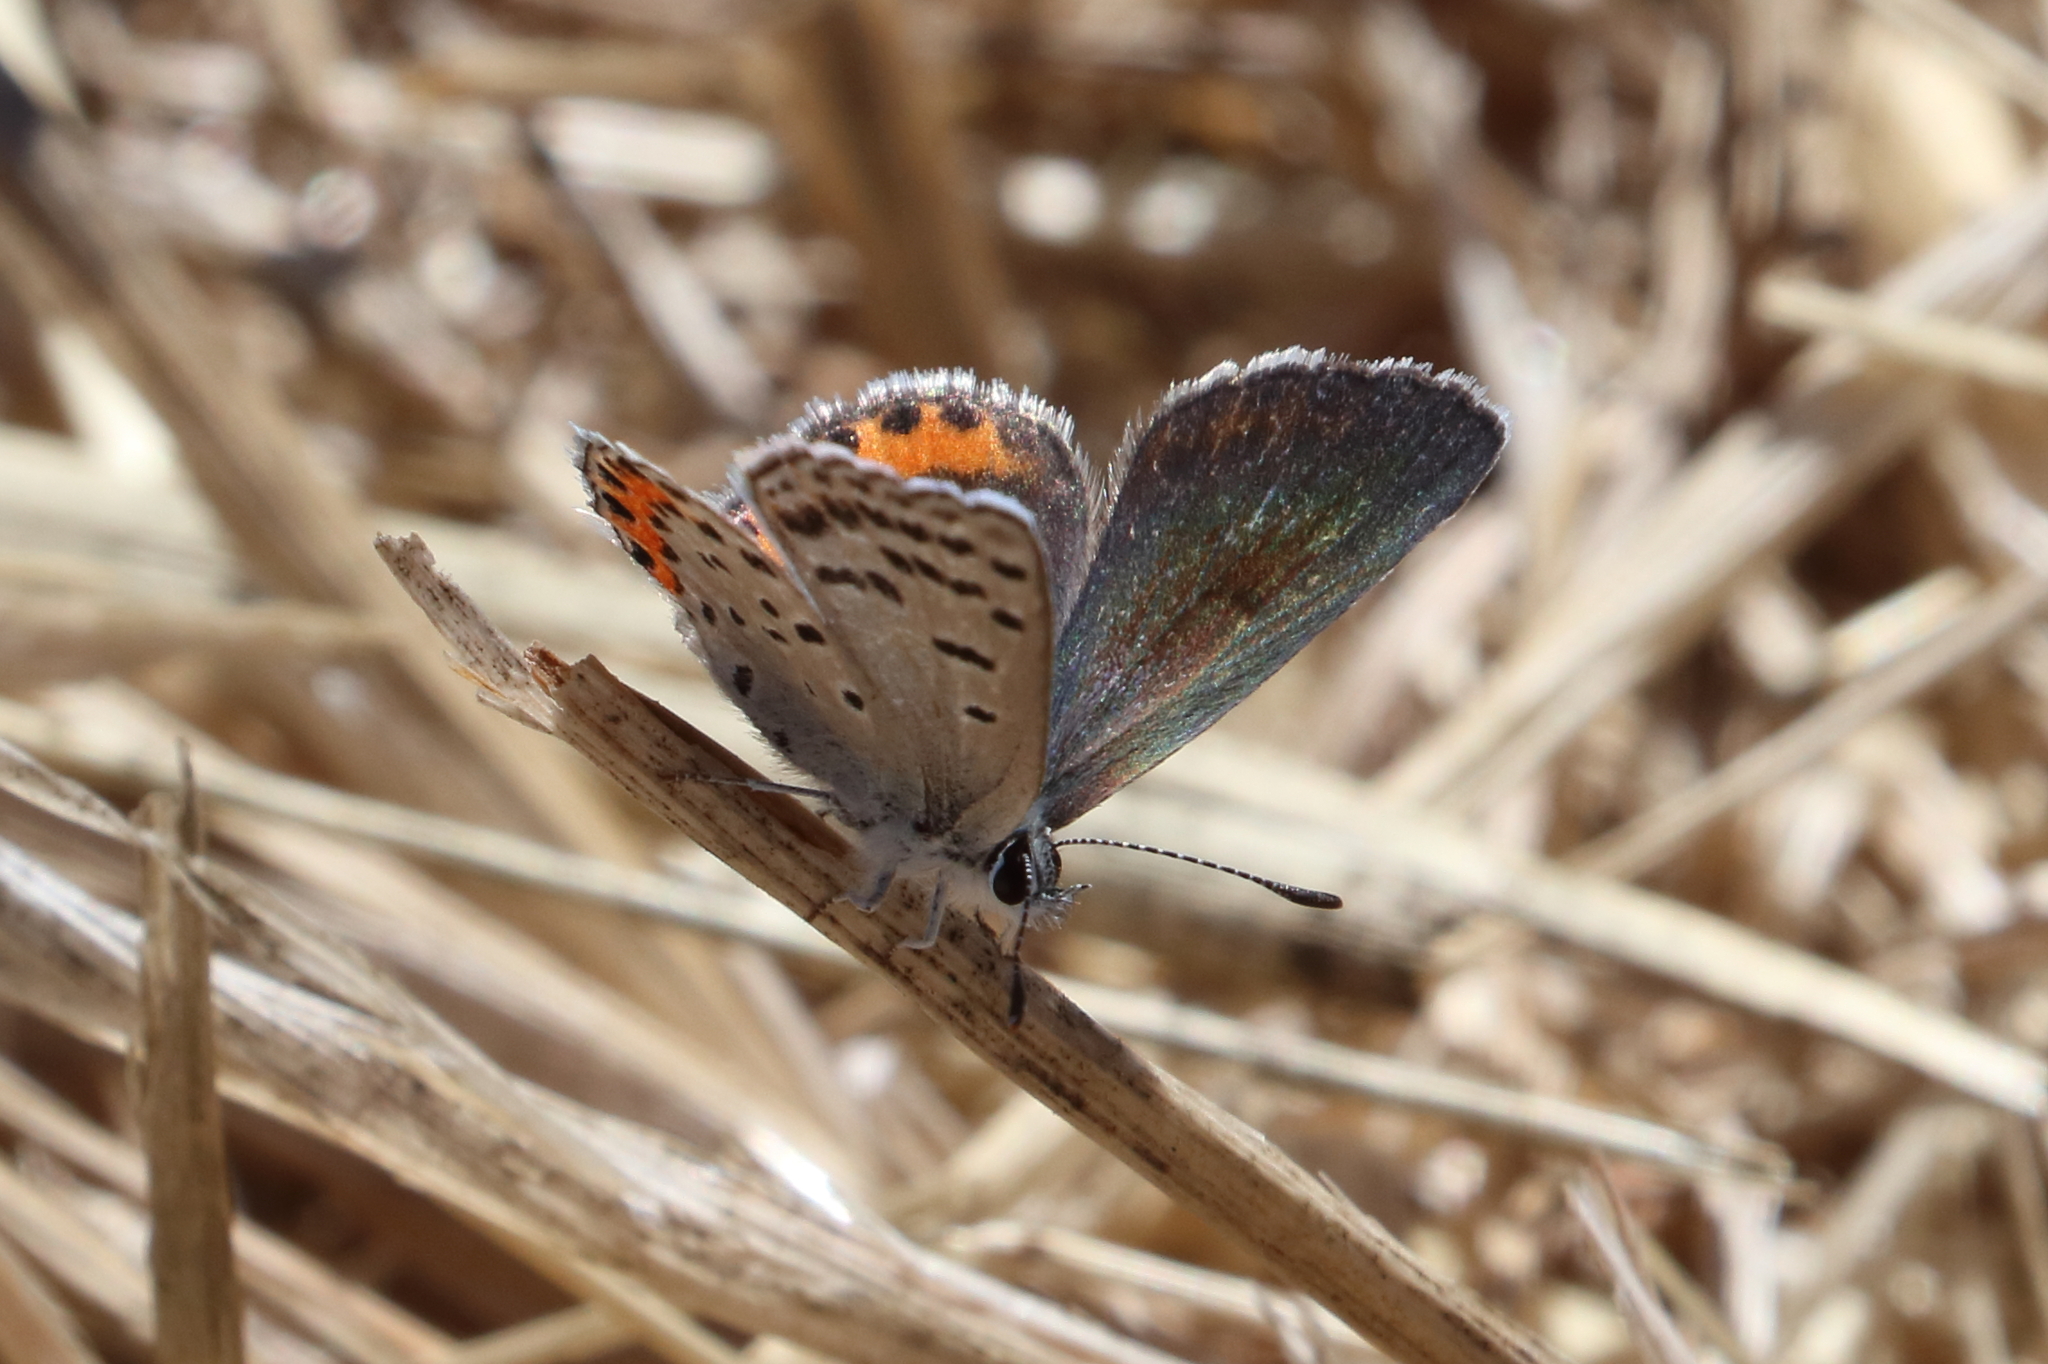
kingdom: Animalia
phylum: Arthropoda
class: Insecta
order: Lepidoptera
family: Lycaenidae
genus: Icaricia
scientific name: Icaricia acmon
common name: Acmon blue
